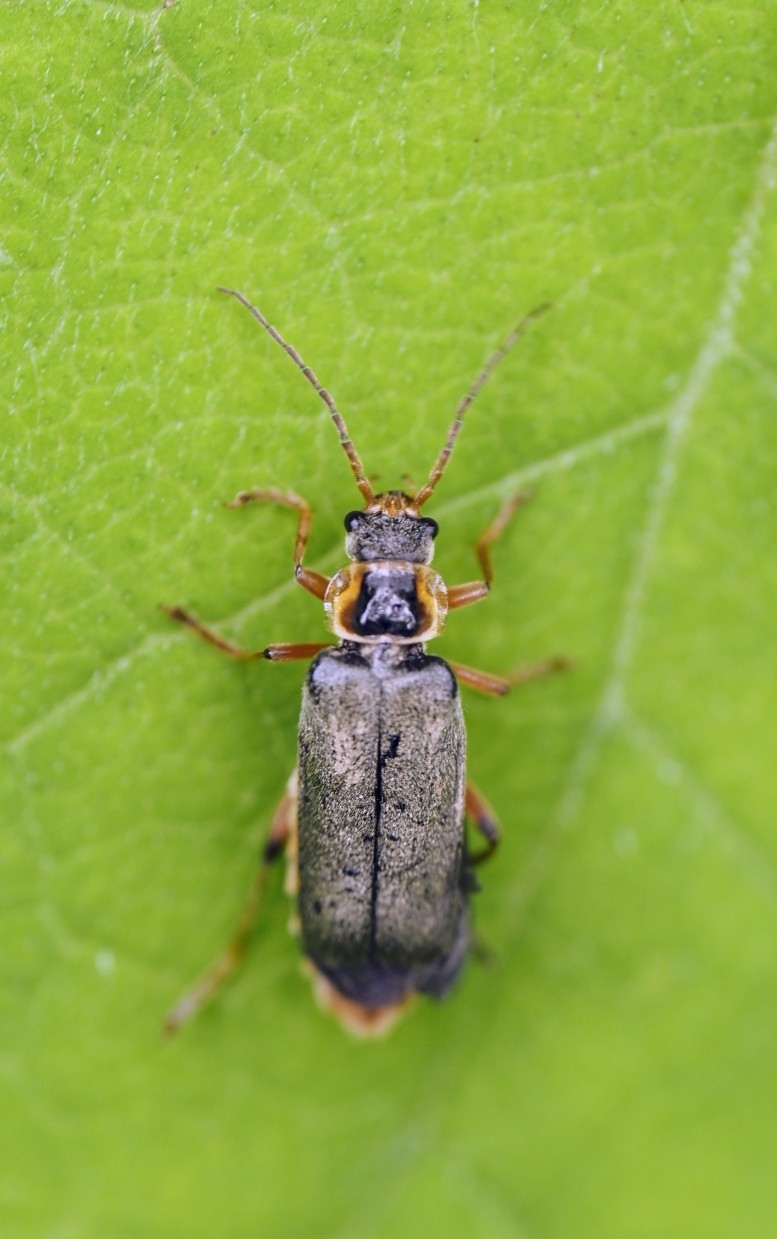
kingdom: Animalia
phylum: Arthropoda
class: Insecta
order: Coleoptera
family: Cantharidae
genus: Cantharis
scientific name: Cantharis nigricans
